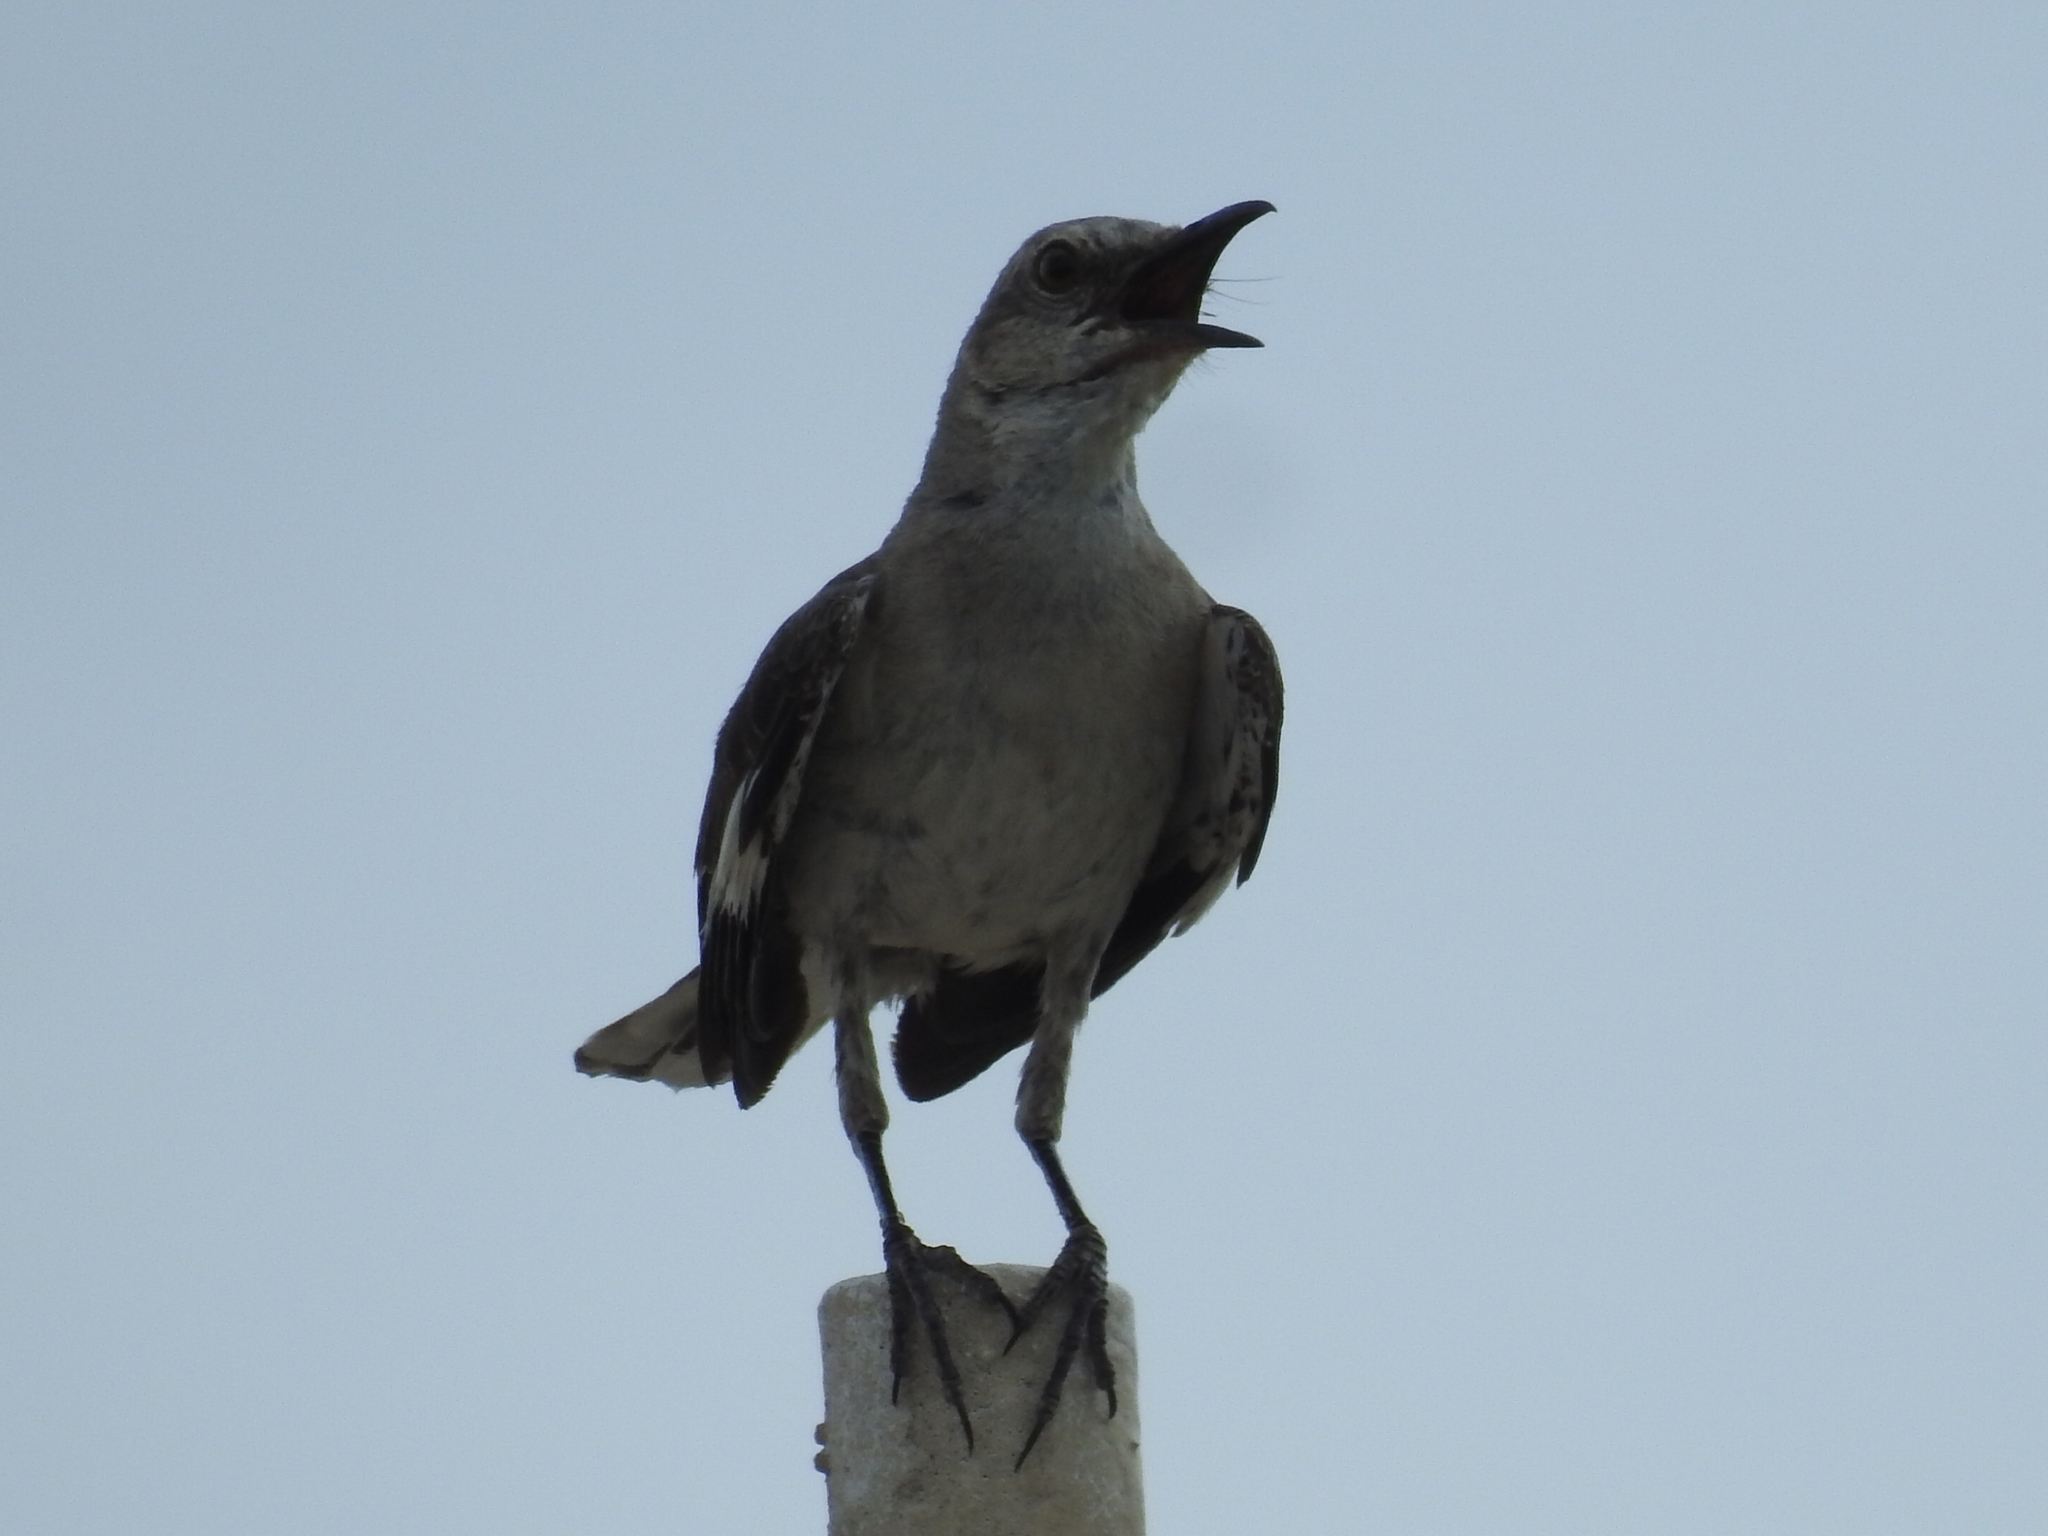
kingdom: Animalia
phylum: Chordata
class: Aves
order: Passeriformes
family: Mimidae
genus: Mimus
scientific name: Mimus polyglottos
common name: Northern mockingbird
